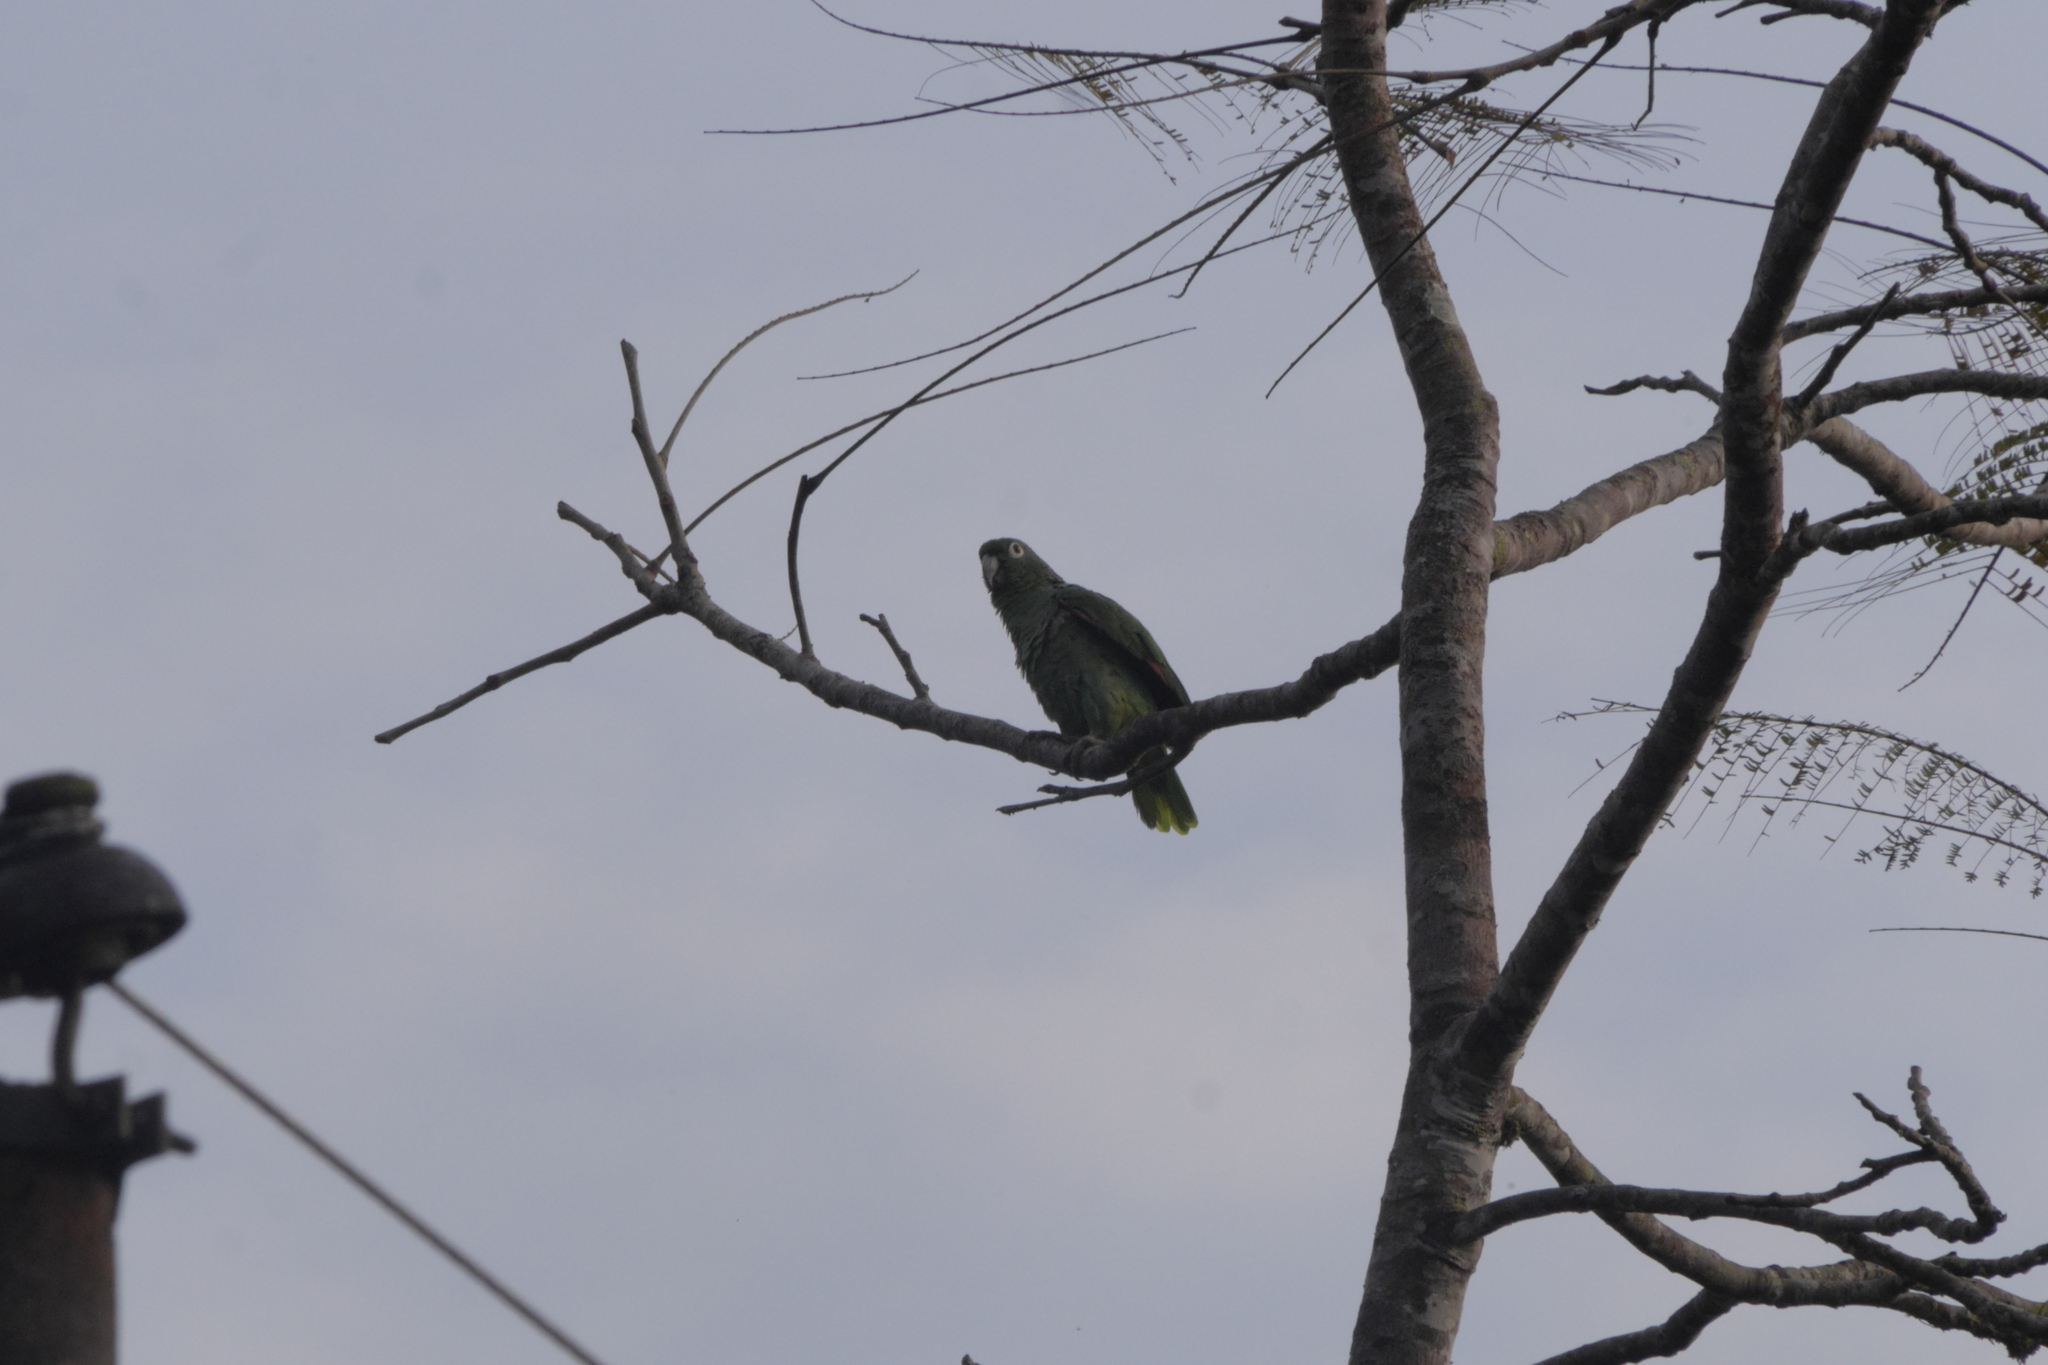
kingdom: Animalia
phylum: Chordata
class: Aves
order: Psittaciformes
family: Psittacidae
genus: Amazona
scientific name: Amazona farinosa
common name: Mealy parrot
